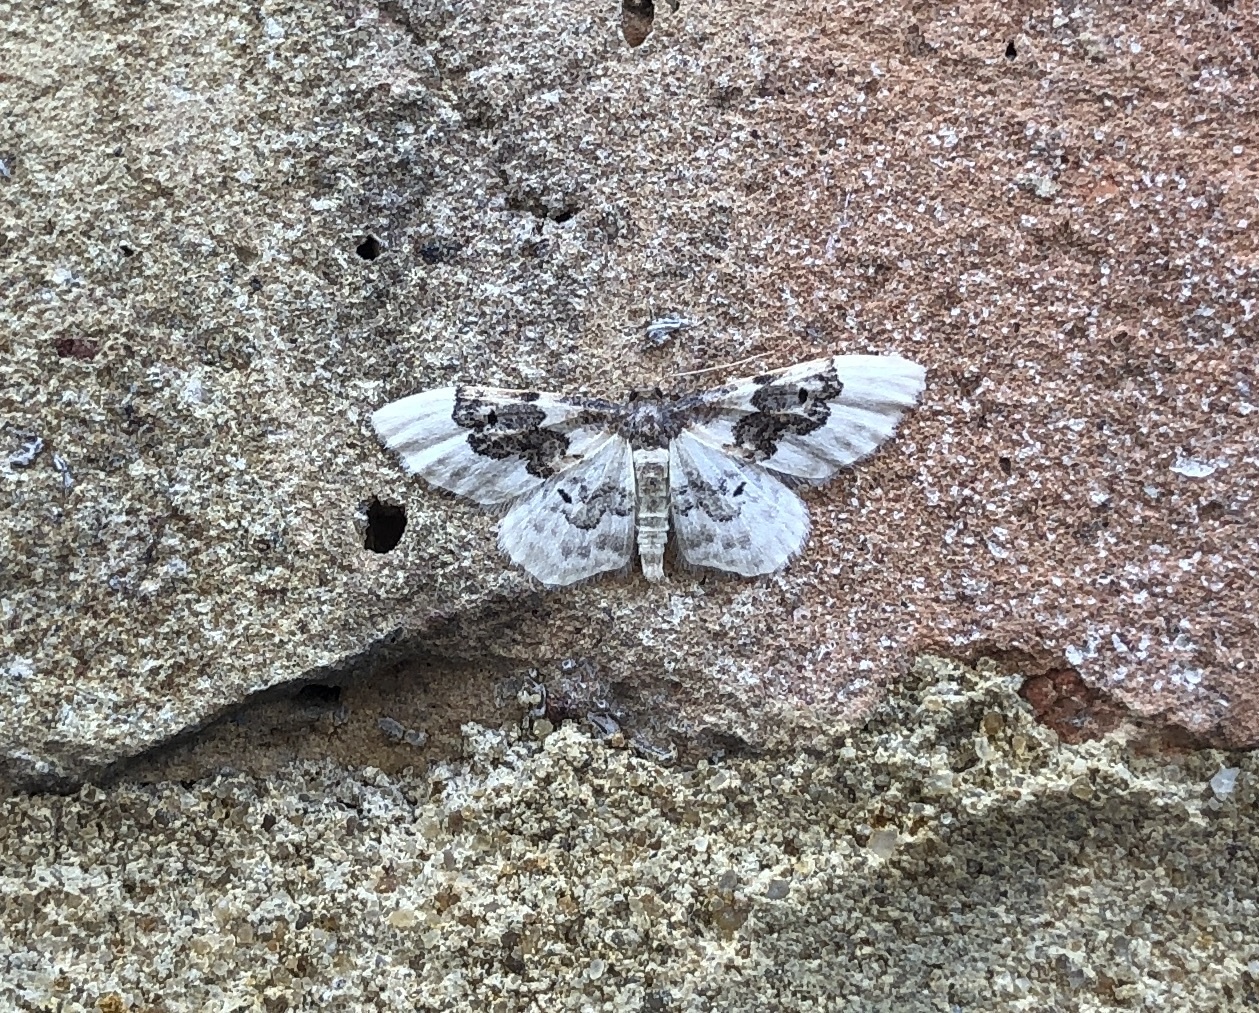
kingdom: Animalia
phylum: Arthropoda
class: Insecta
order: Lepidoptera
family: Geometridae
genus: Idaea
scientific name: Idaea rusticata
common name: Least carpet
